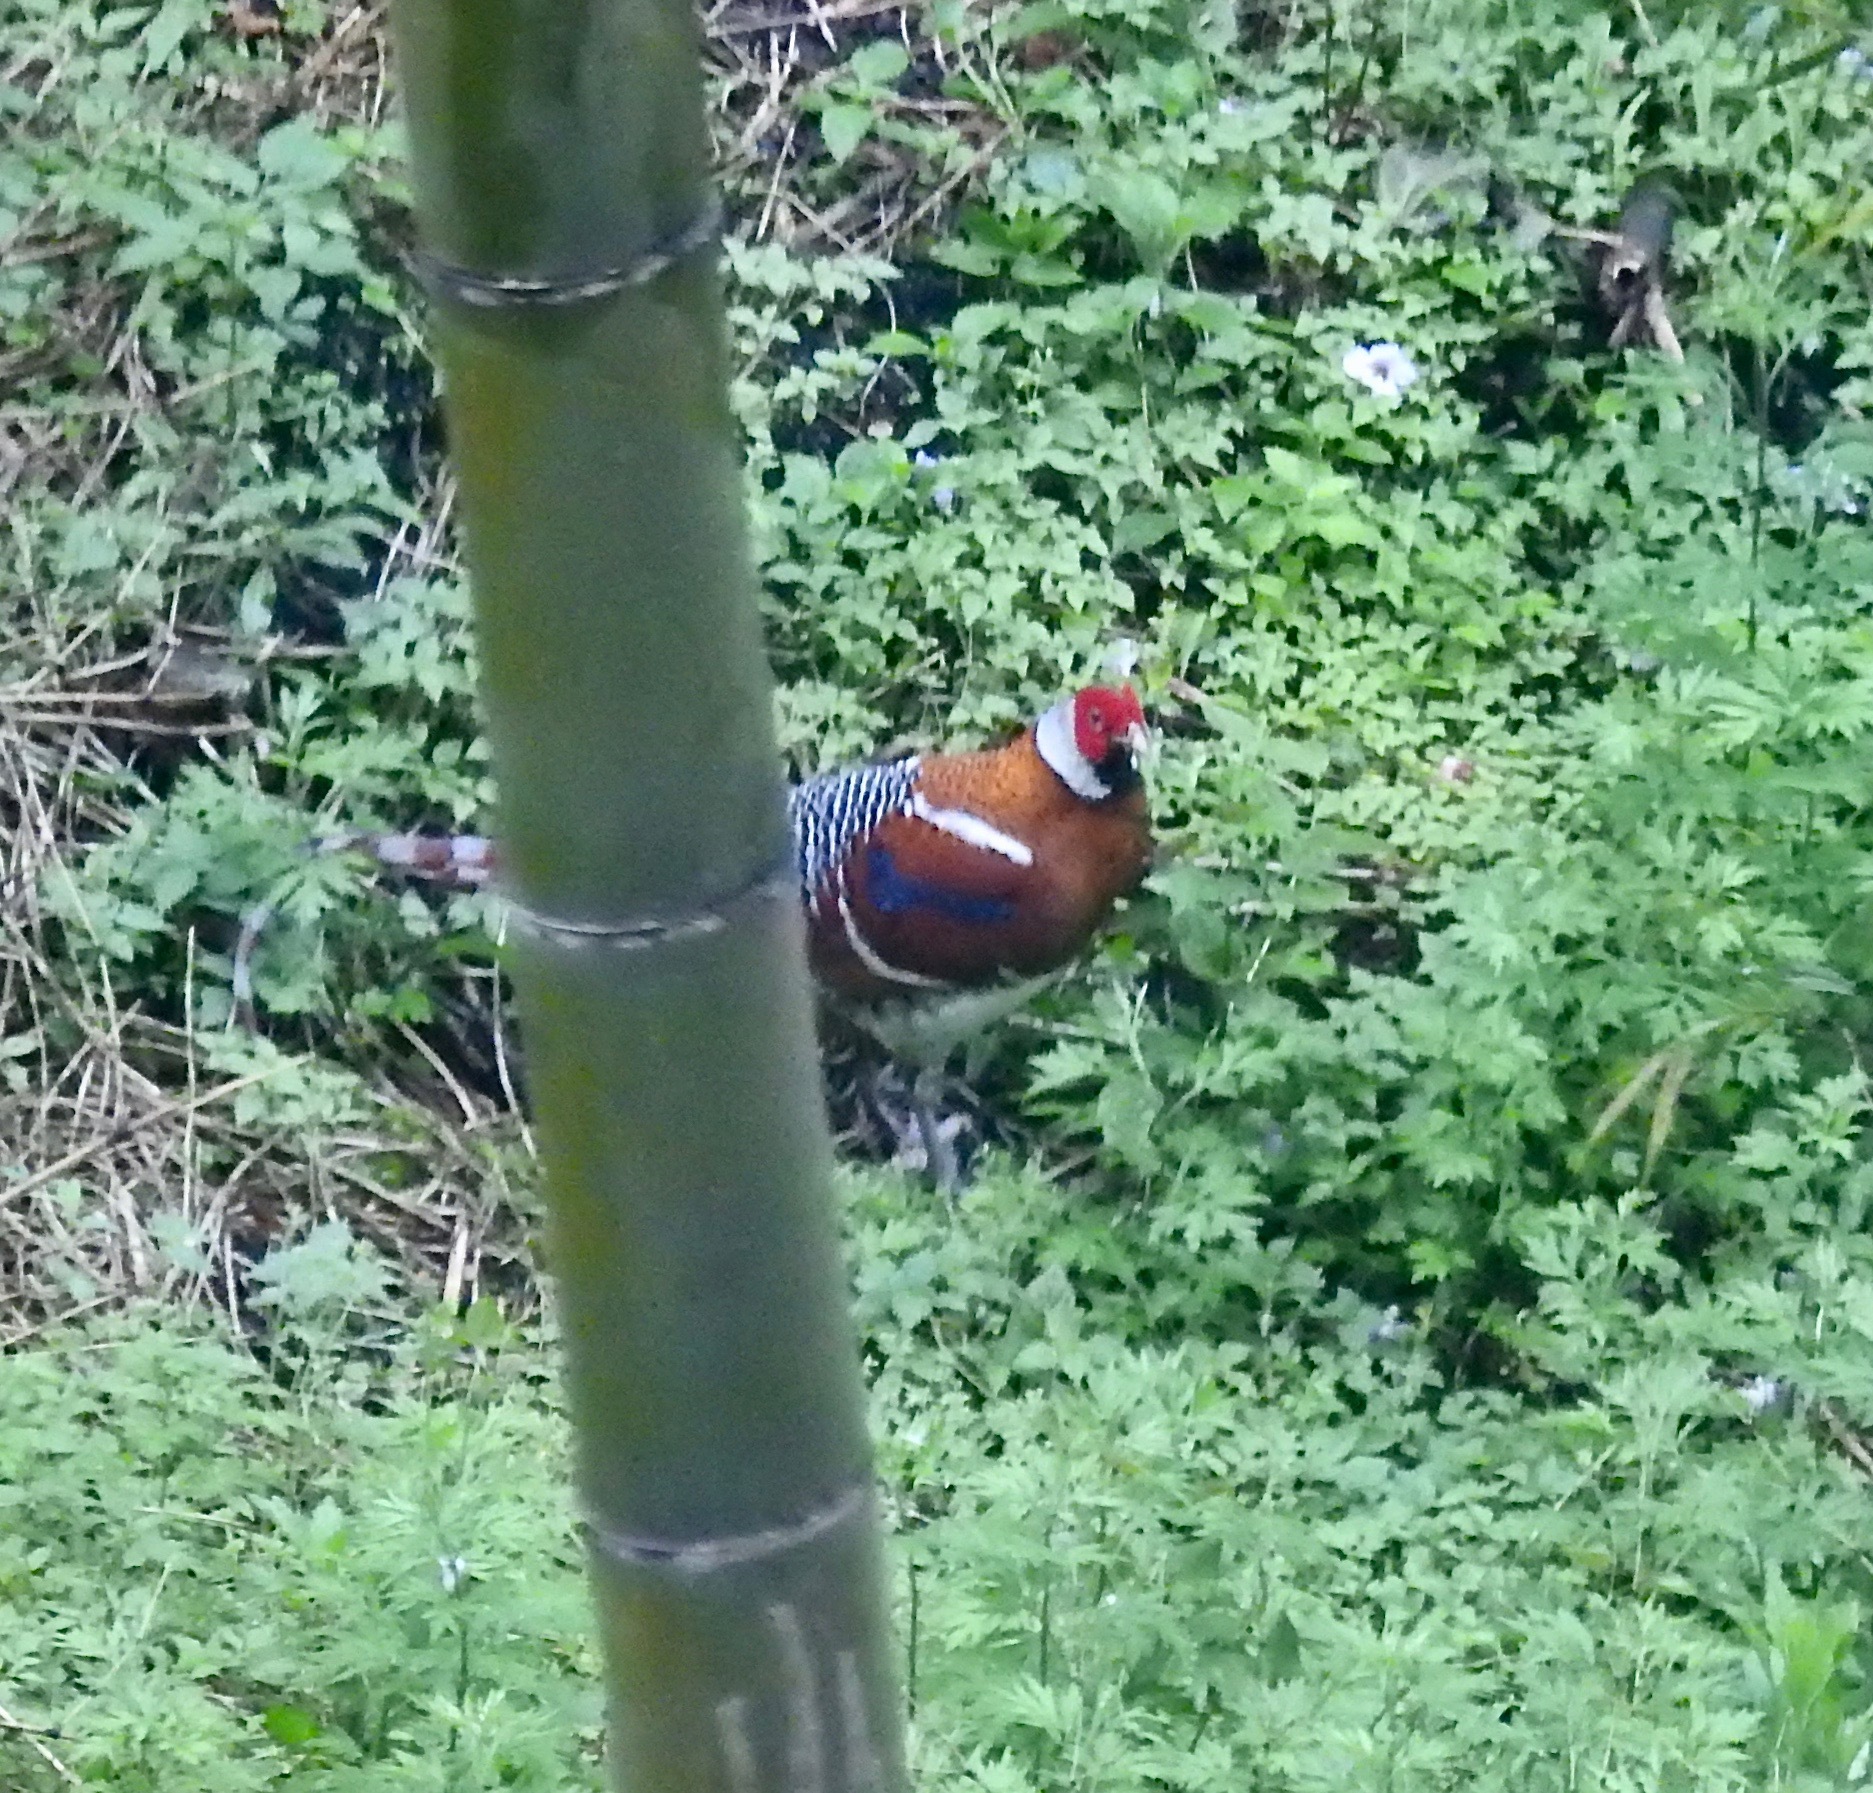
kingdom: Animalia
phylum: Chordata
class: Aves
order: Galliformes
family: Phasianidae
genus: Syrmaticus
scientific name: Syrmaticus ellioti
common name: Elliot's pheasant
